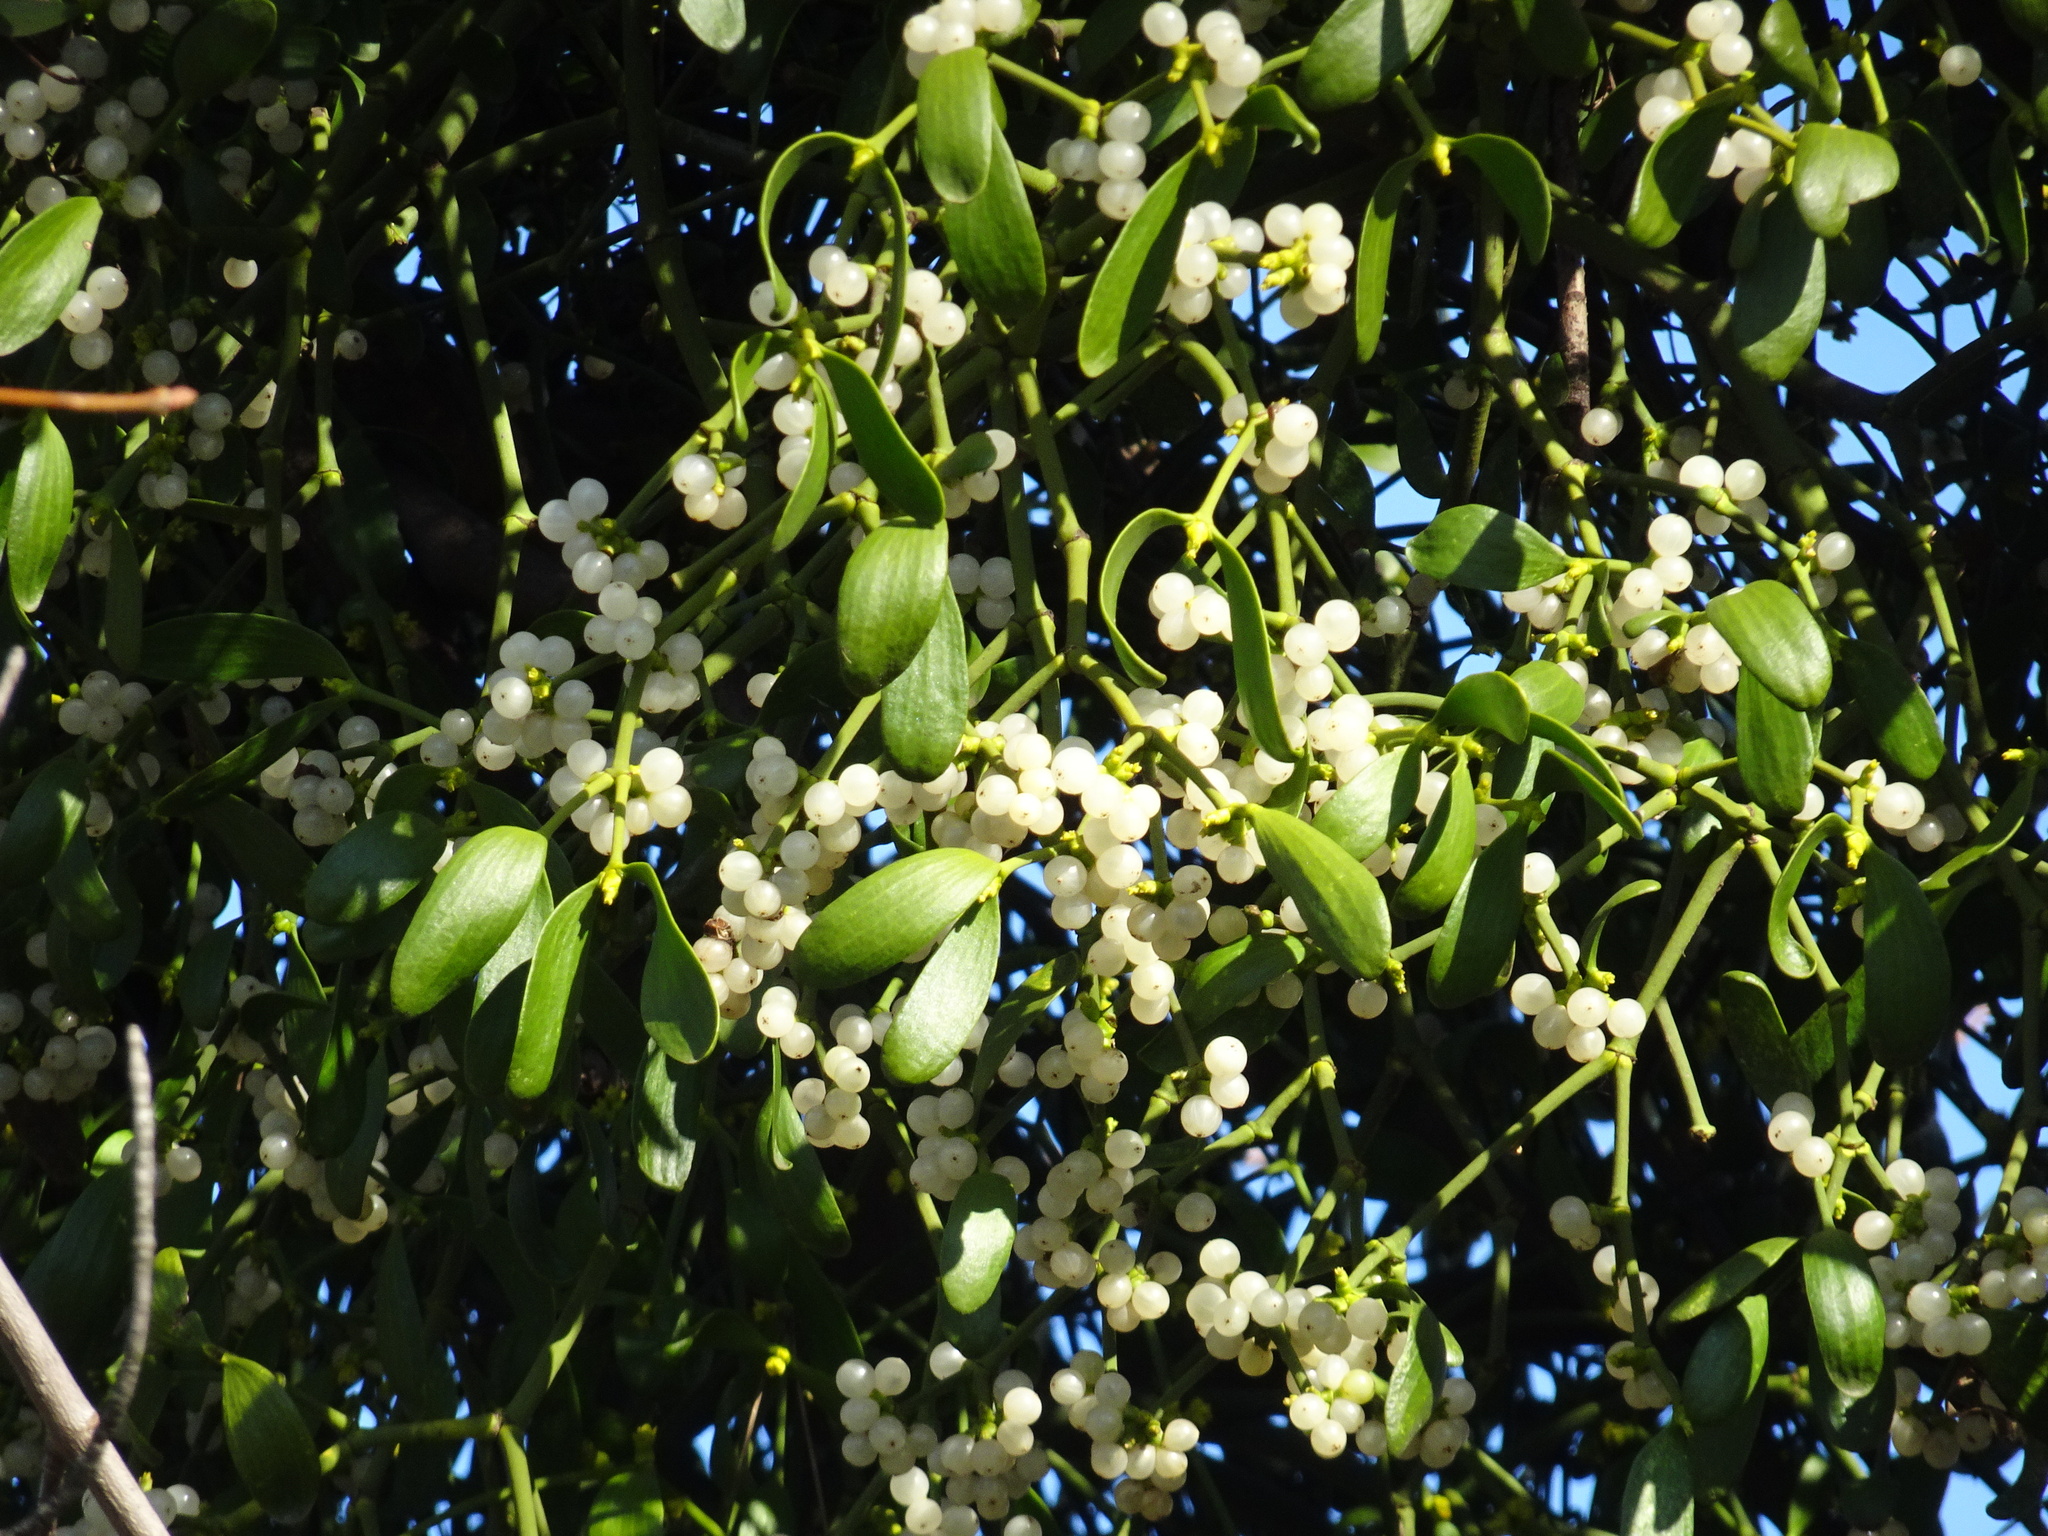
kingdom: Plantae
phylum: Tracheophyta
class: Magnoliopsida
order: Santalales
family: Viscaceae
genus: Viscum
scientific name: Viscum album
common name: Mistletoe
